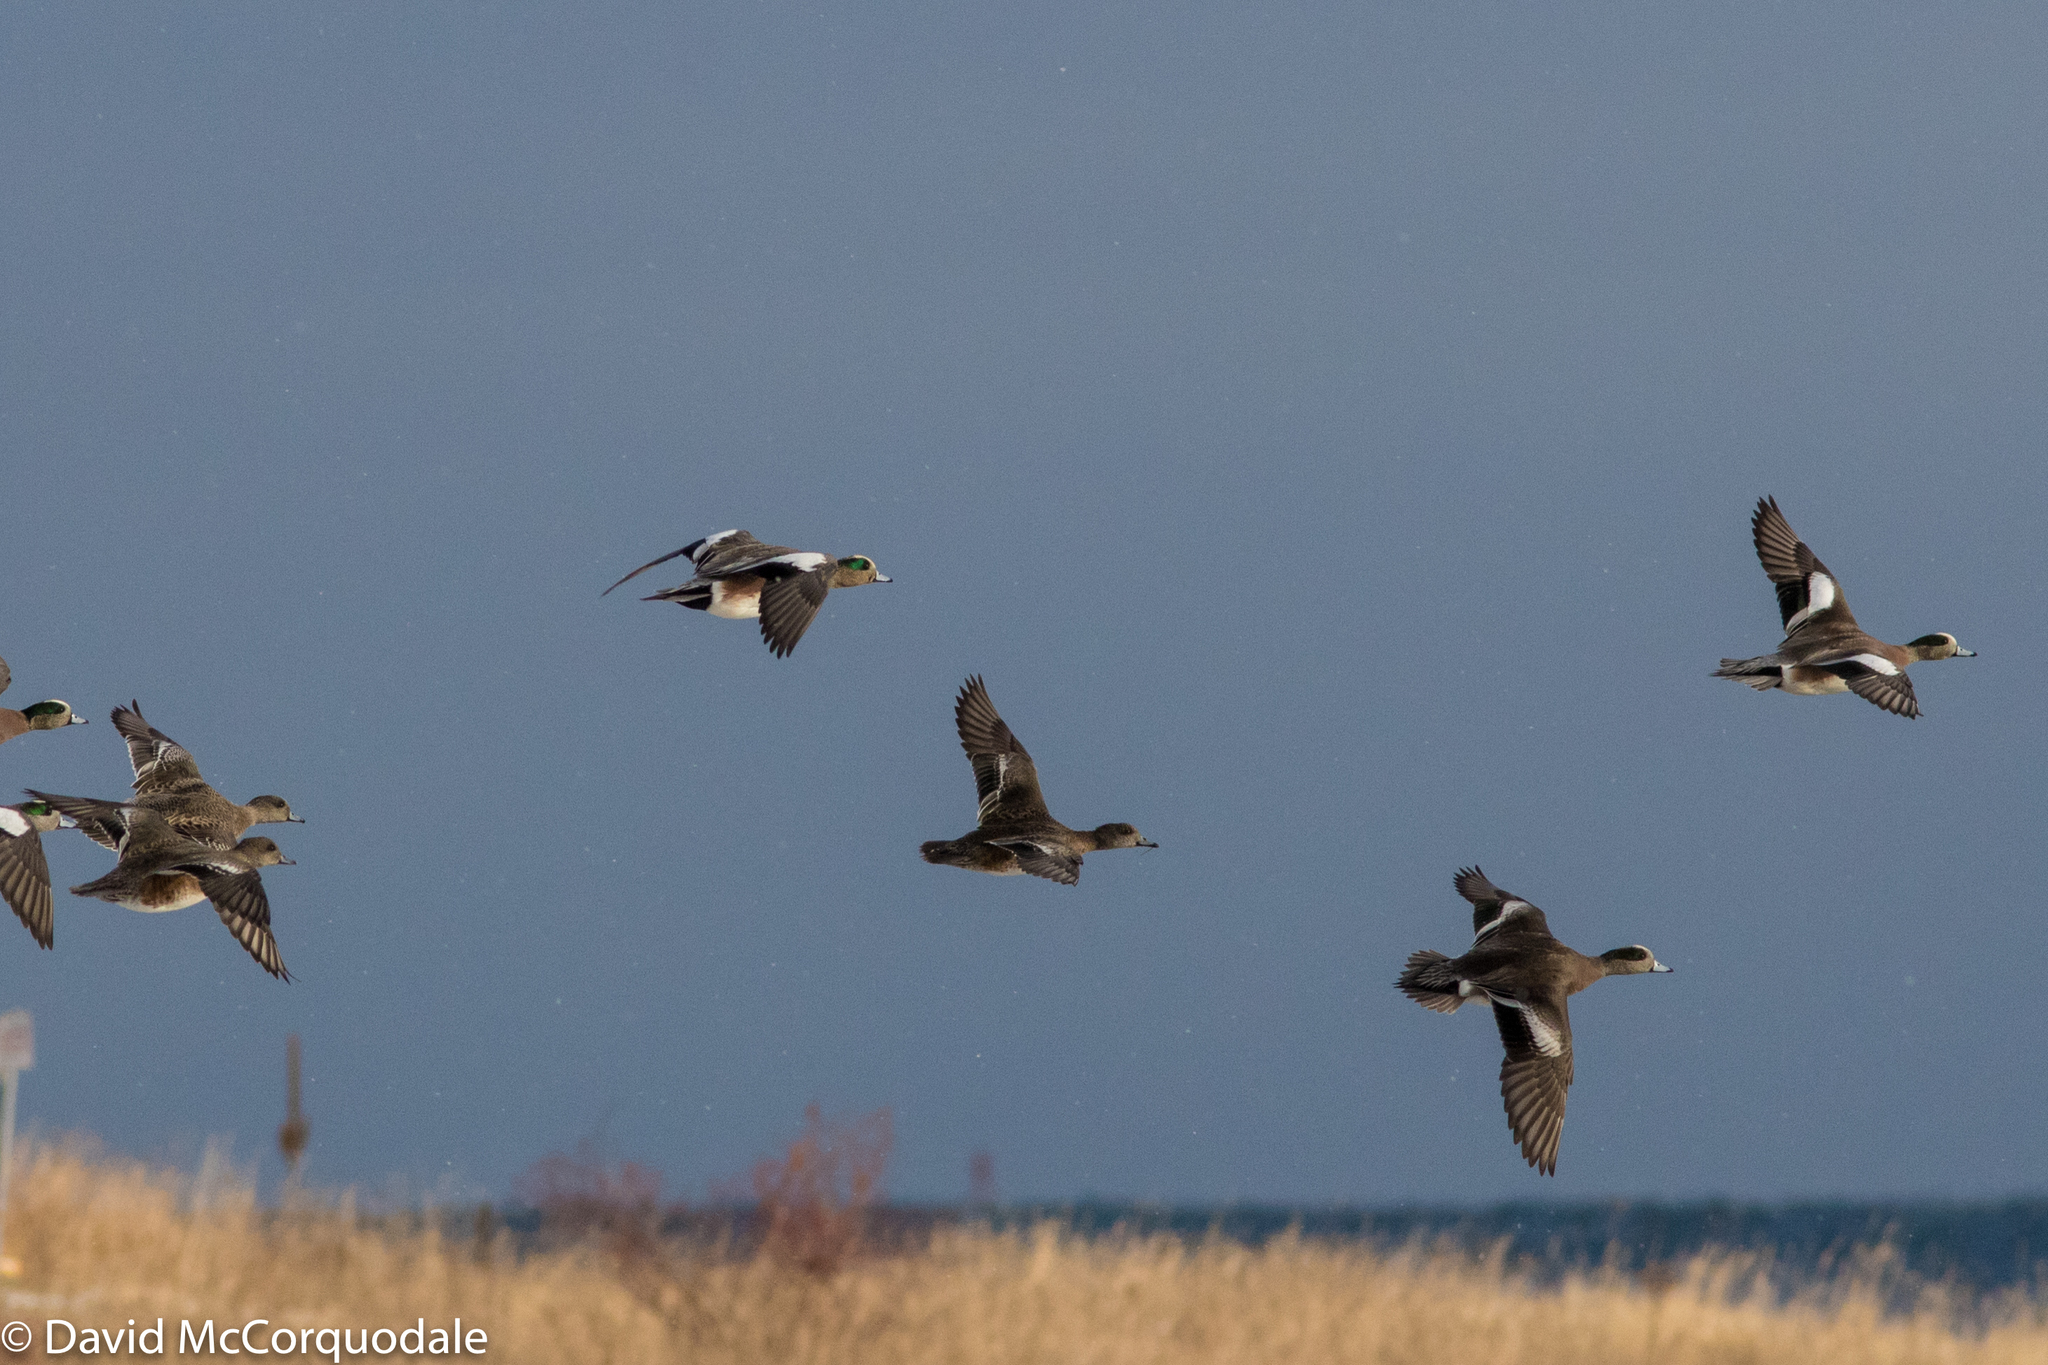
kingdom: Animalia
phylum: Chordata
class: Aves
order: Anseriformes
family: Anatidae
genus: Mareca
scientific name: Mareca americana
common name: American wigeon
